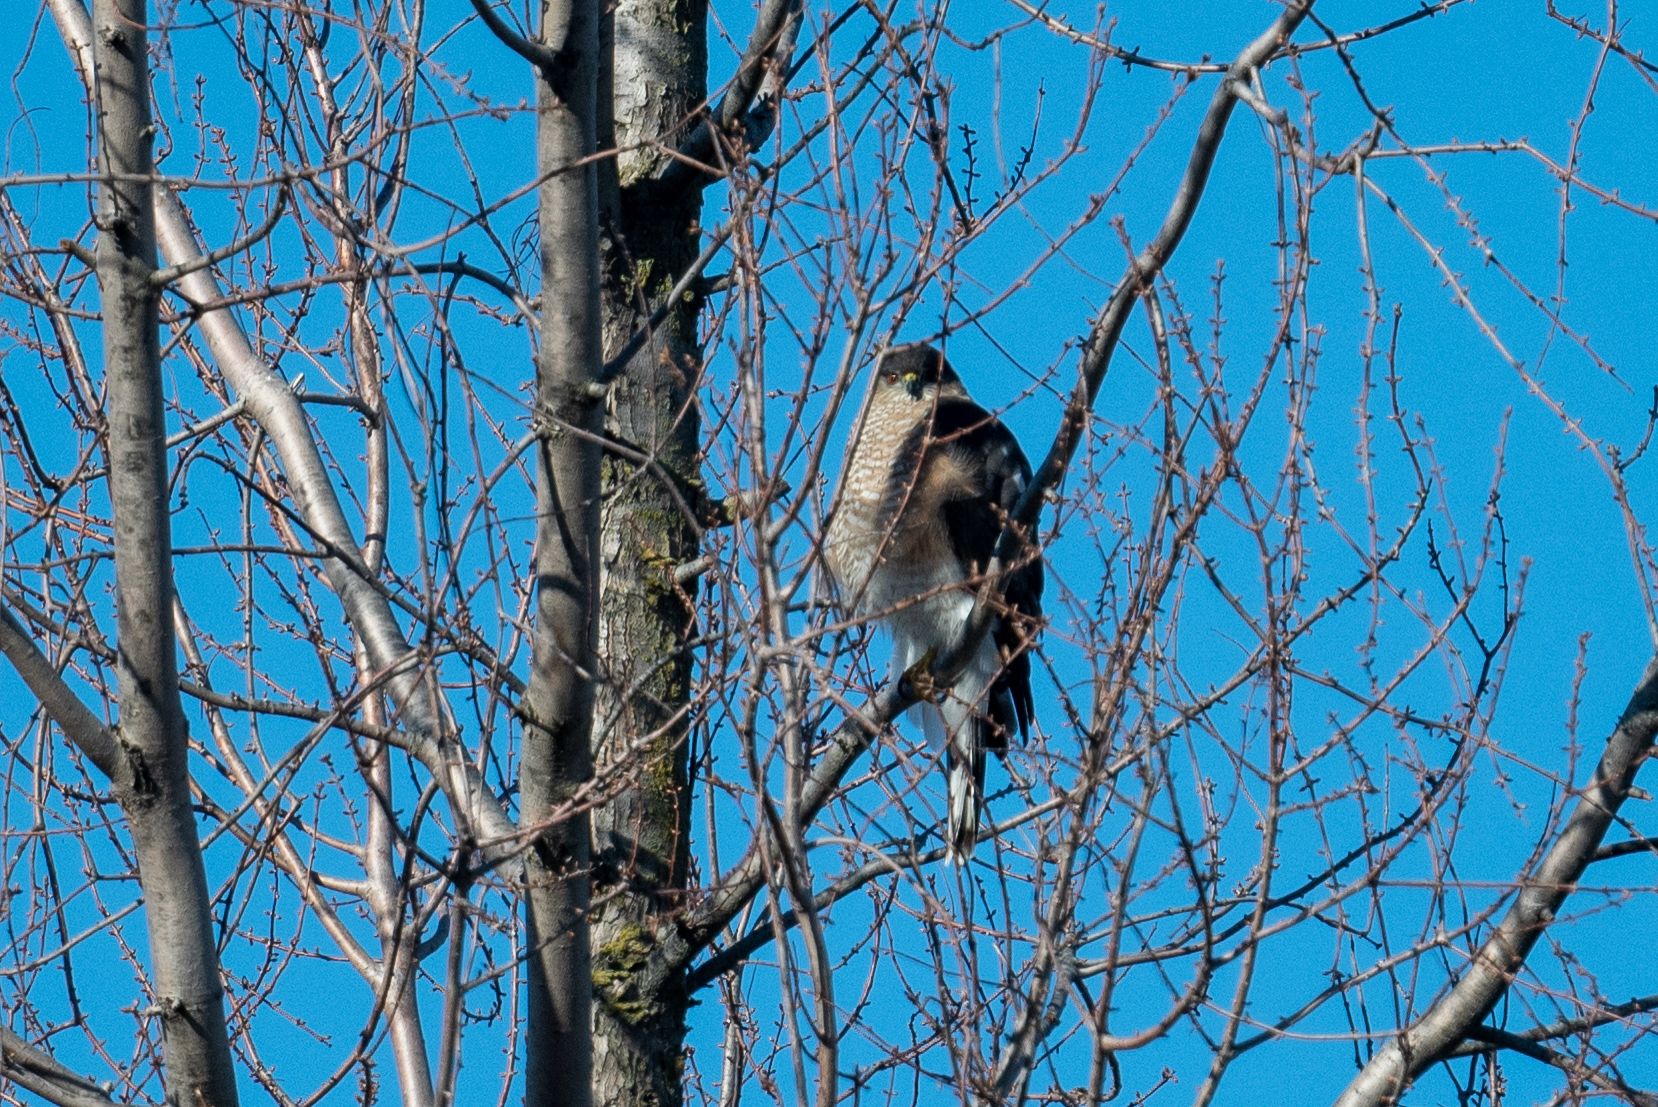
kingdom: Animalia
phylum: Chordata
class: Aves
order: Accipitriformes
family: Accipitridae
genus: Accipiter
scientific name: Accipiter cooperii
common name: Cooper's hawk
